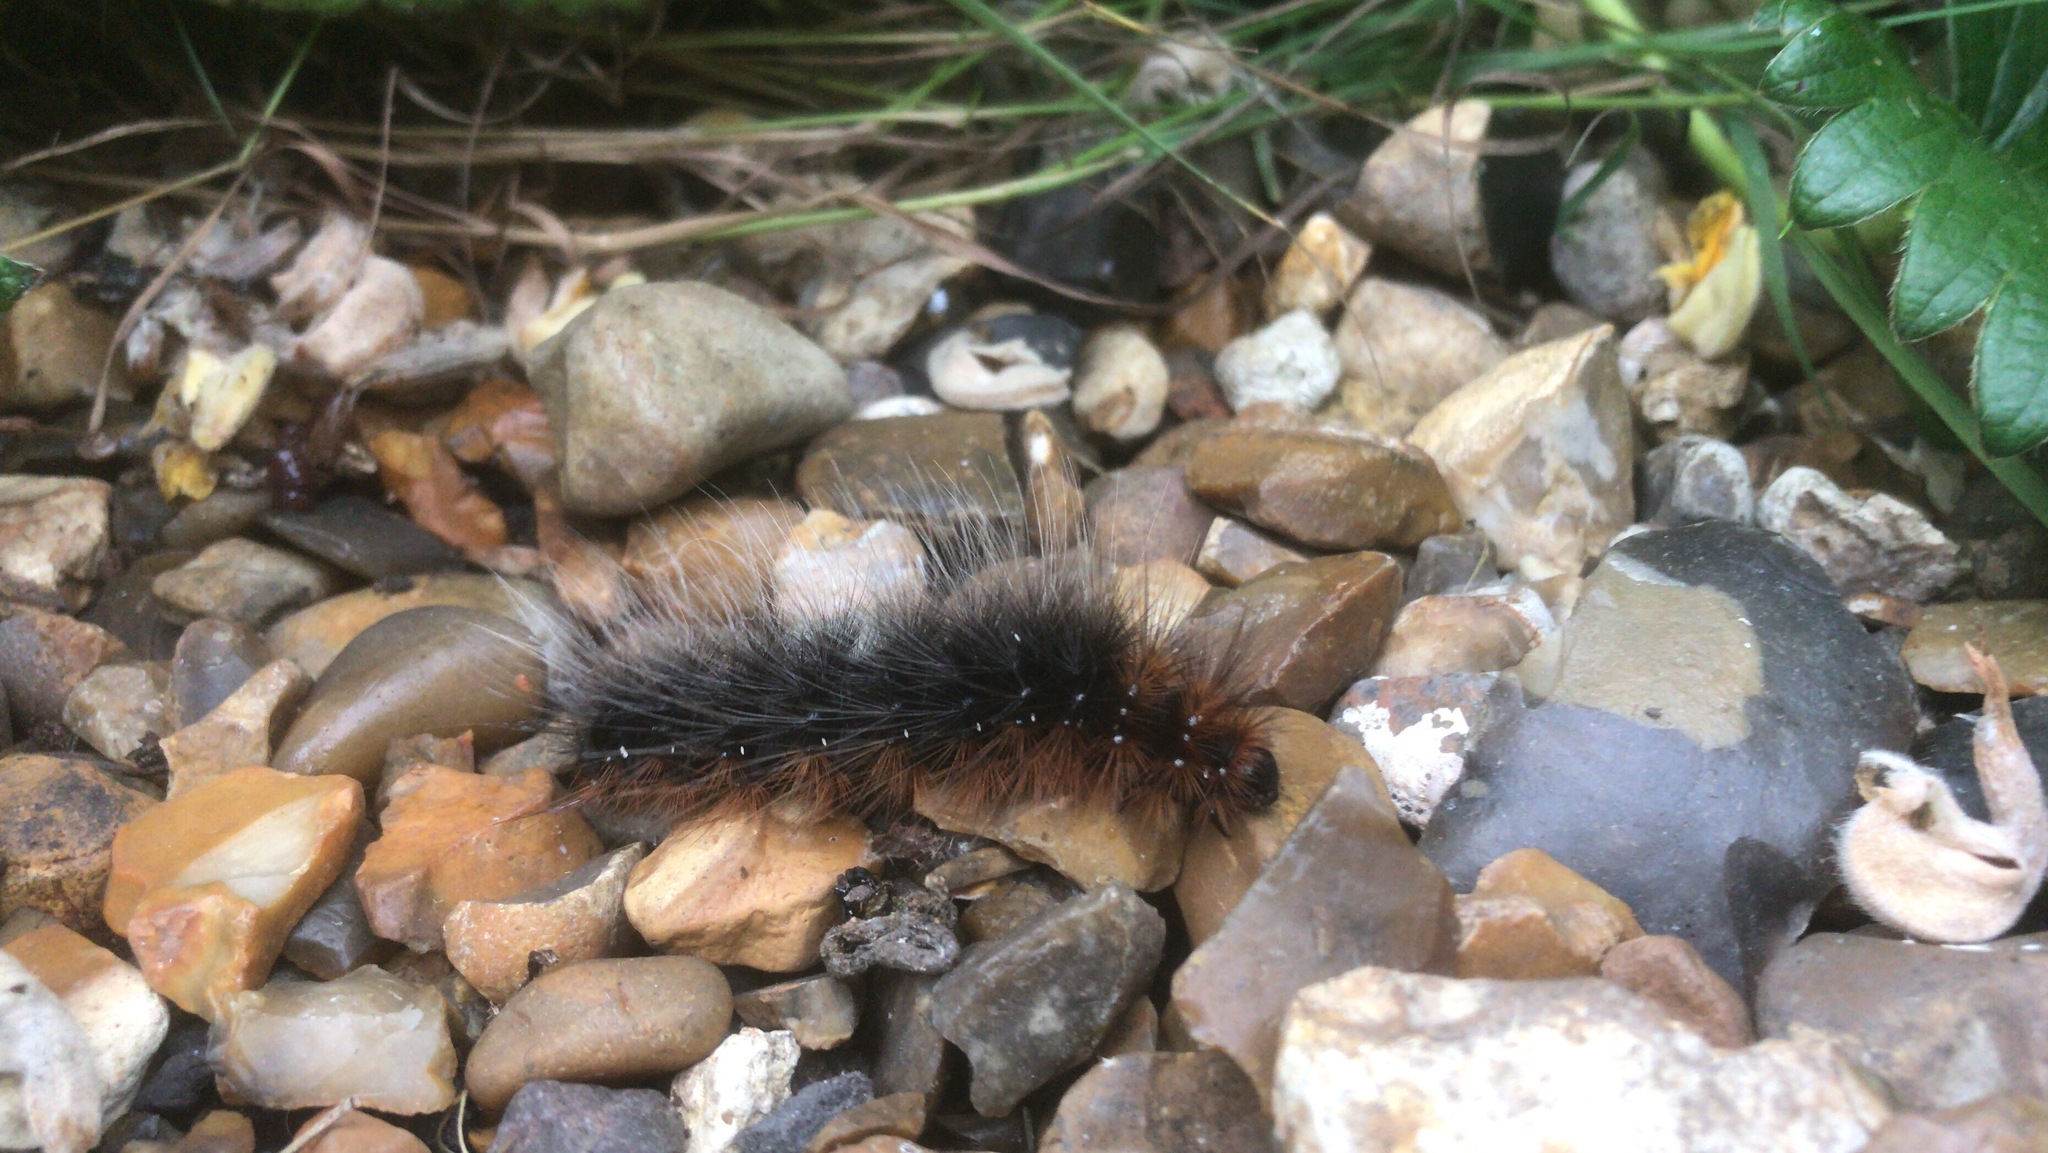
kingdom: Animalia
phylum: Arthropoda
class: Insecta
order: Lepidoptera
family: Erebidae
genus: Arctia
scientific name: Arctia caja
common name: Garden tiger
